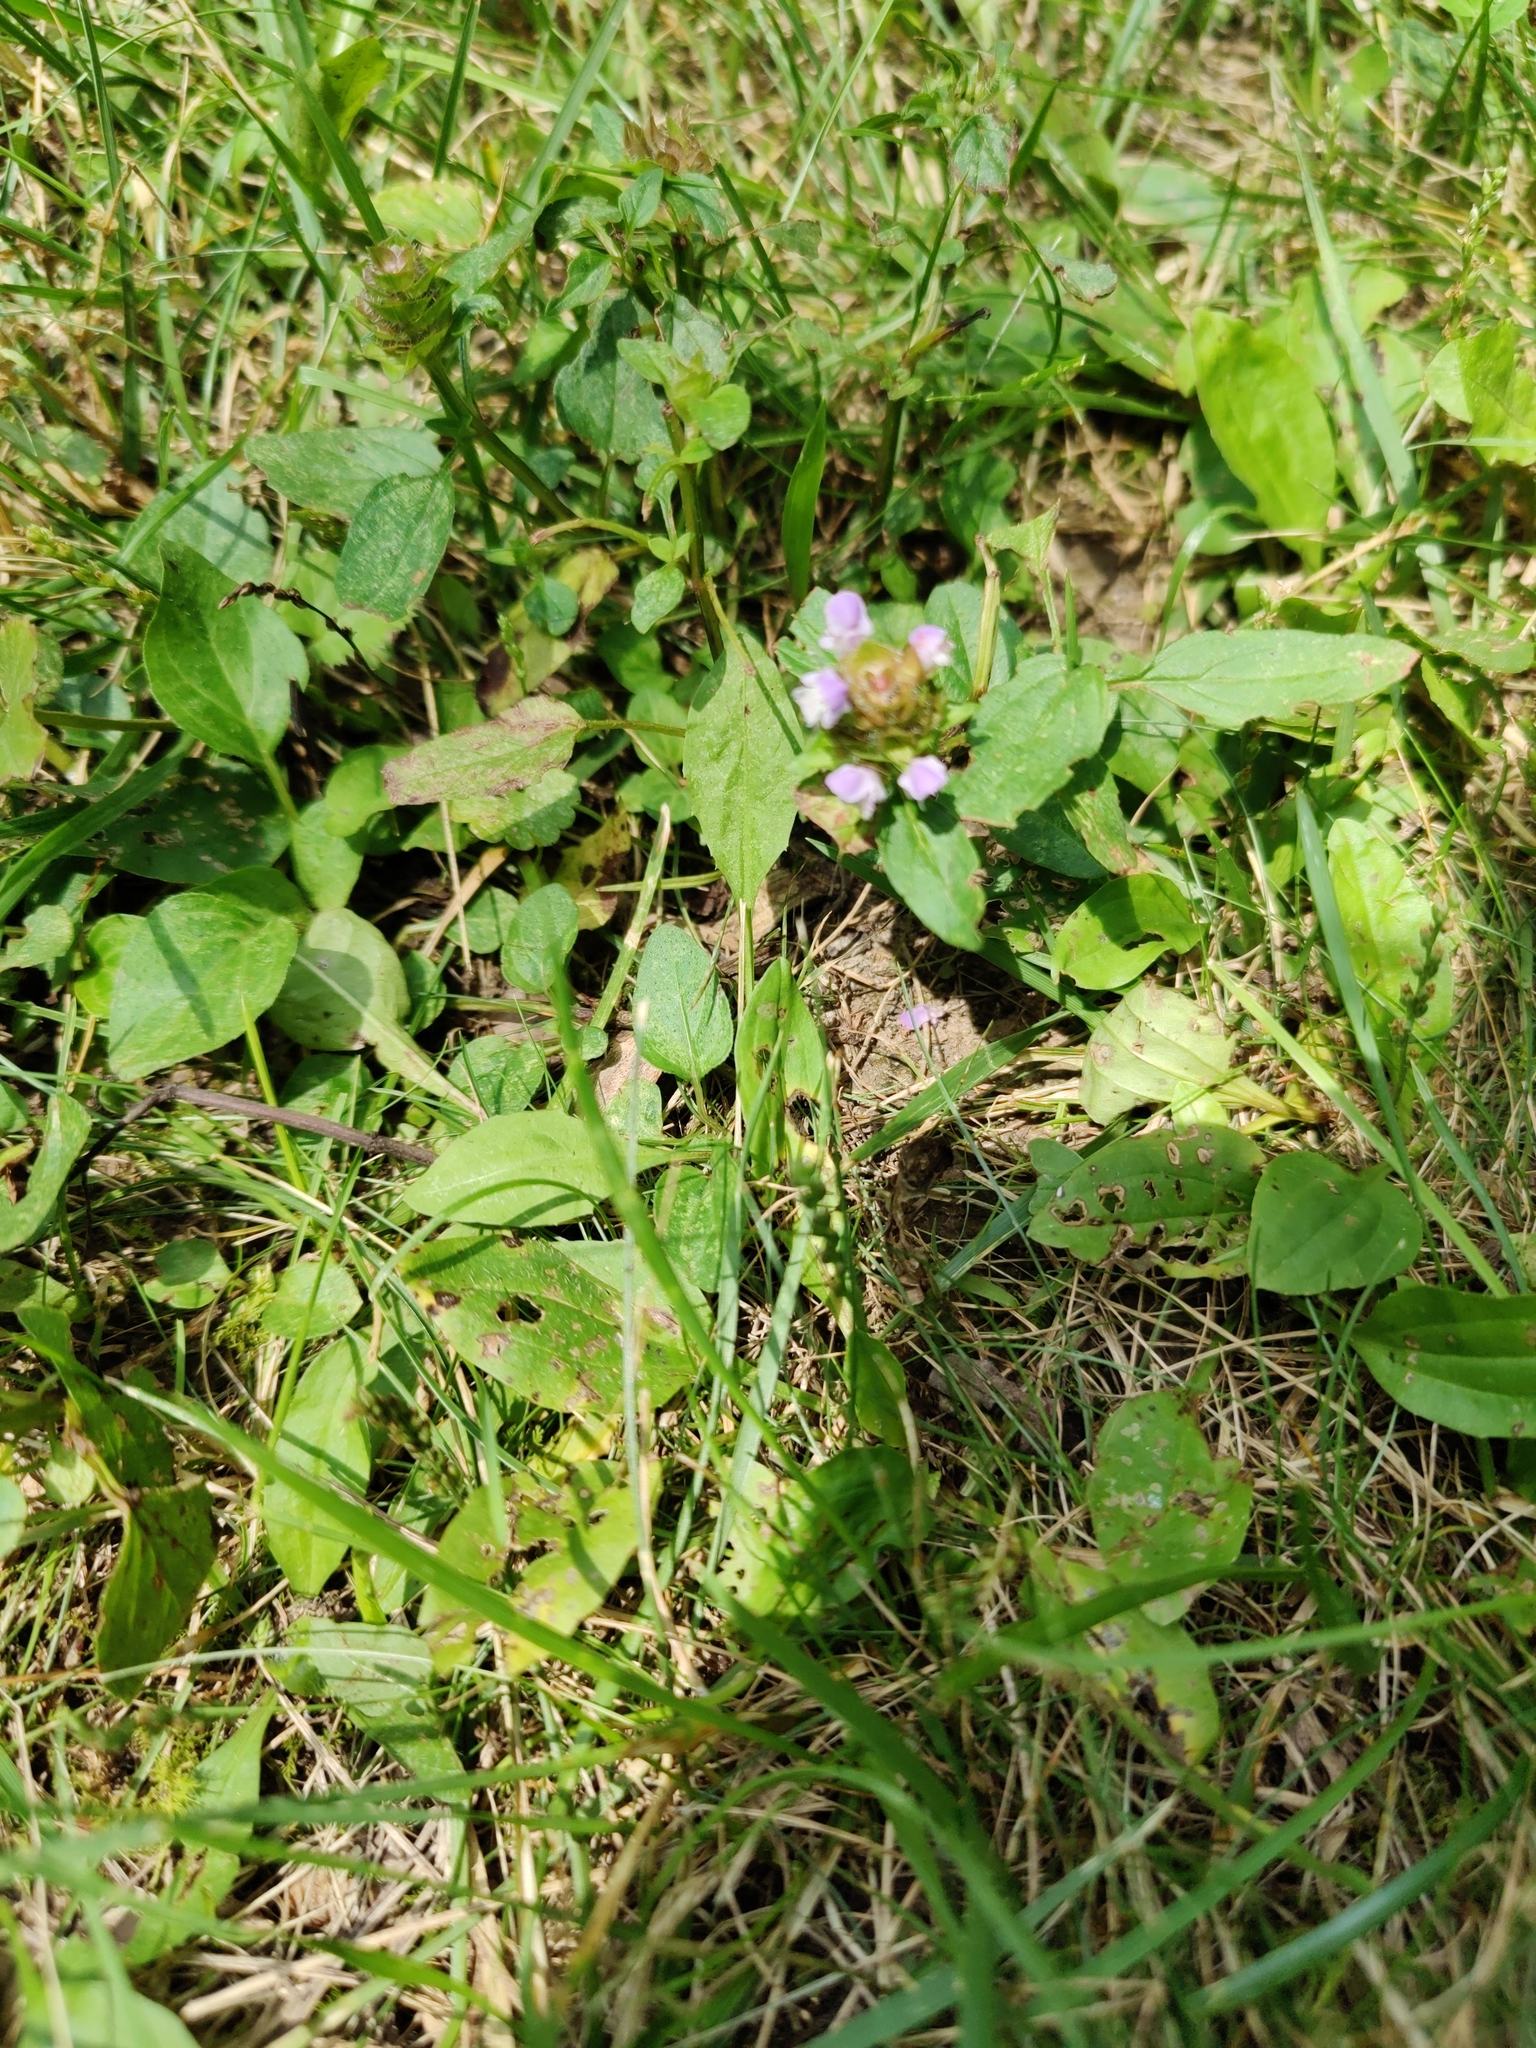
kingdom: Plantae
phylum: Tracheophyta
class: Magnoliopsida
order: Lamiales
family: Lamiaceae
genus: Prunella
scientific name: Prunella vulgaris
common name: Heal-all
